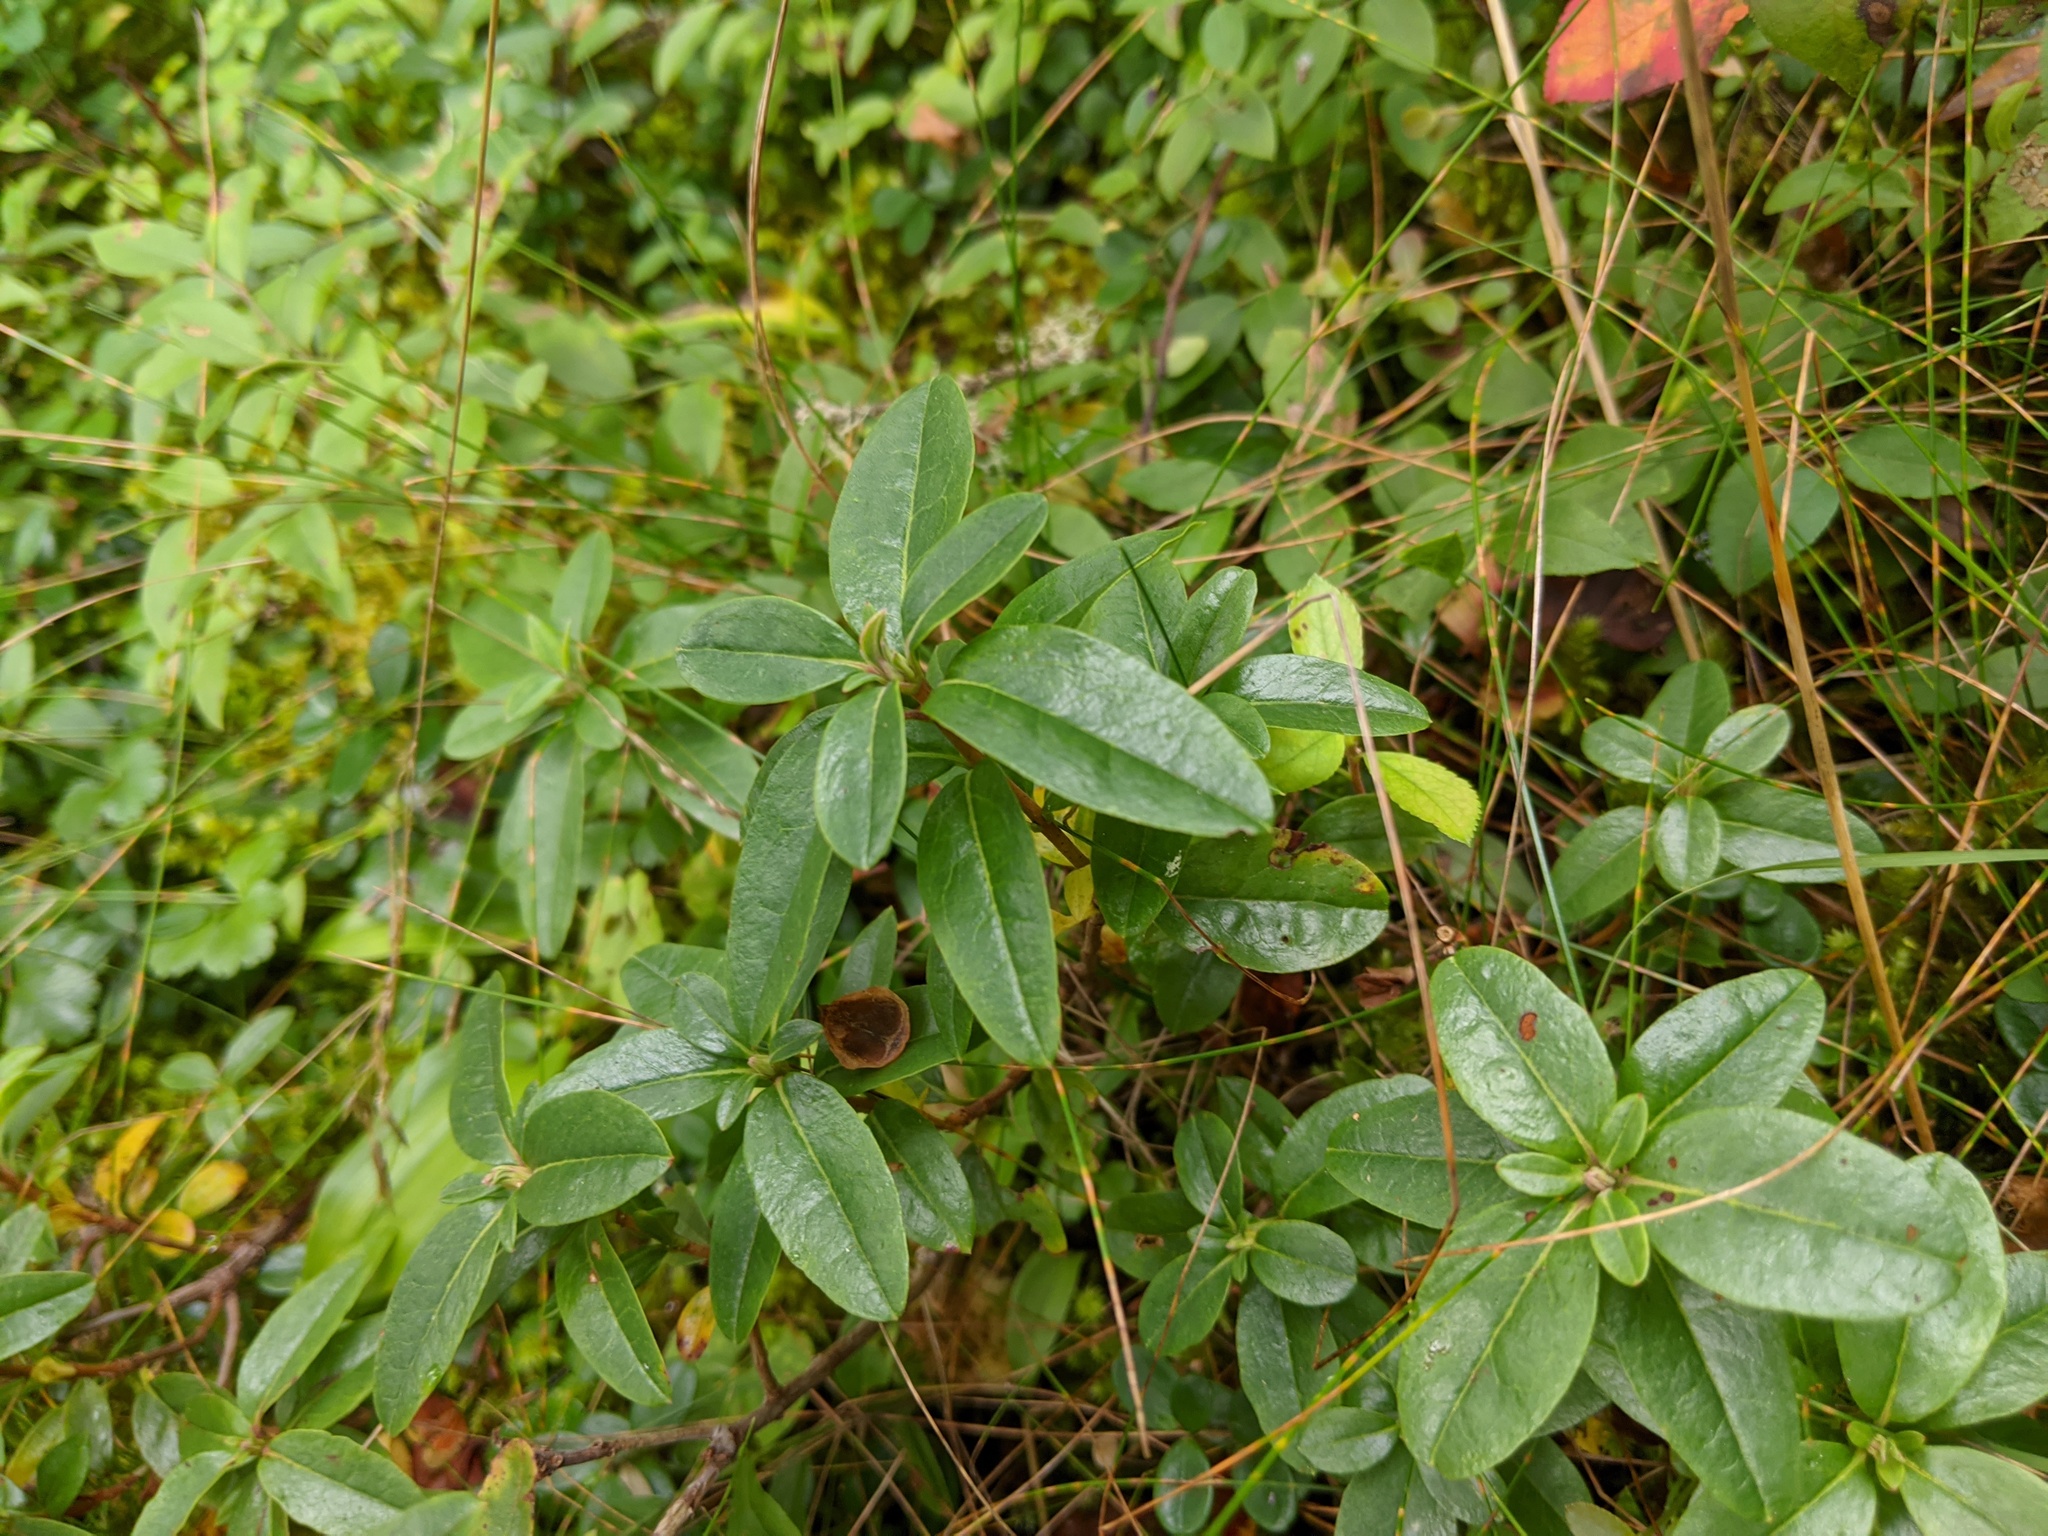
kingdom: Plantae
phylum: Tracheophyta
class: Magnoliopsida
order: Ericales
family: Ericaceae
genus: Kalmia
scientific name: Kalmia angustifolia
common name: Sheep-laurel
